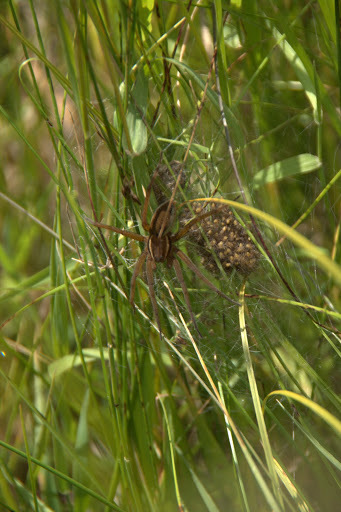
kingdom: Animalia
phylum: Arthropoda
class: Arachnida
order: Araneae
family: Pisauridae
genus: Dolomedes
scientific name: Dolomedes triton
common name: Six-spotted fishing spider
